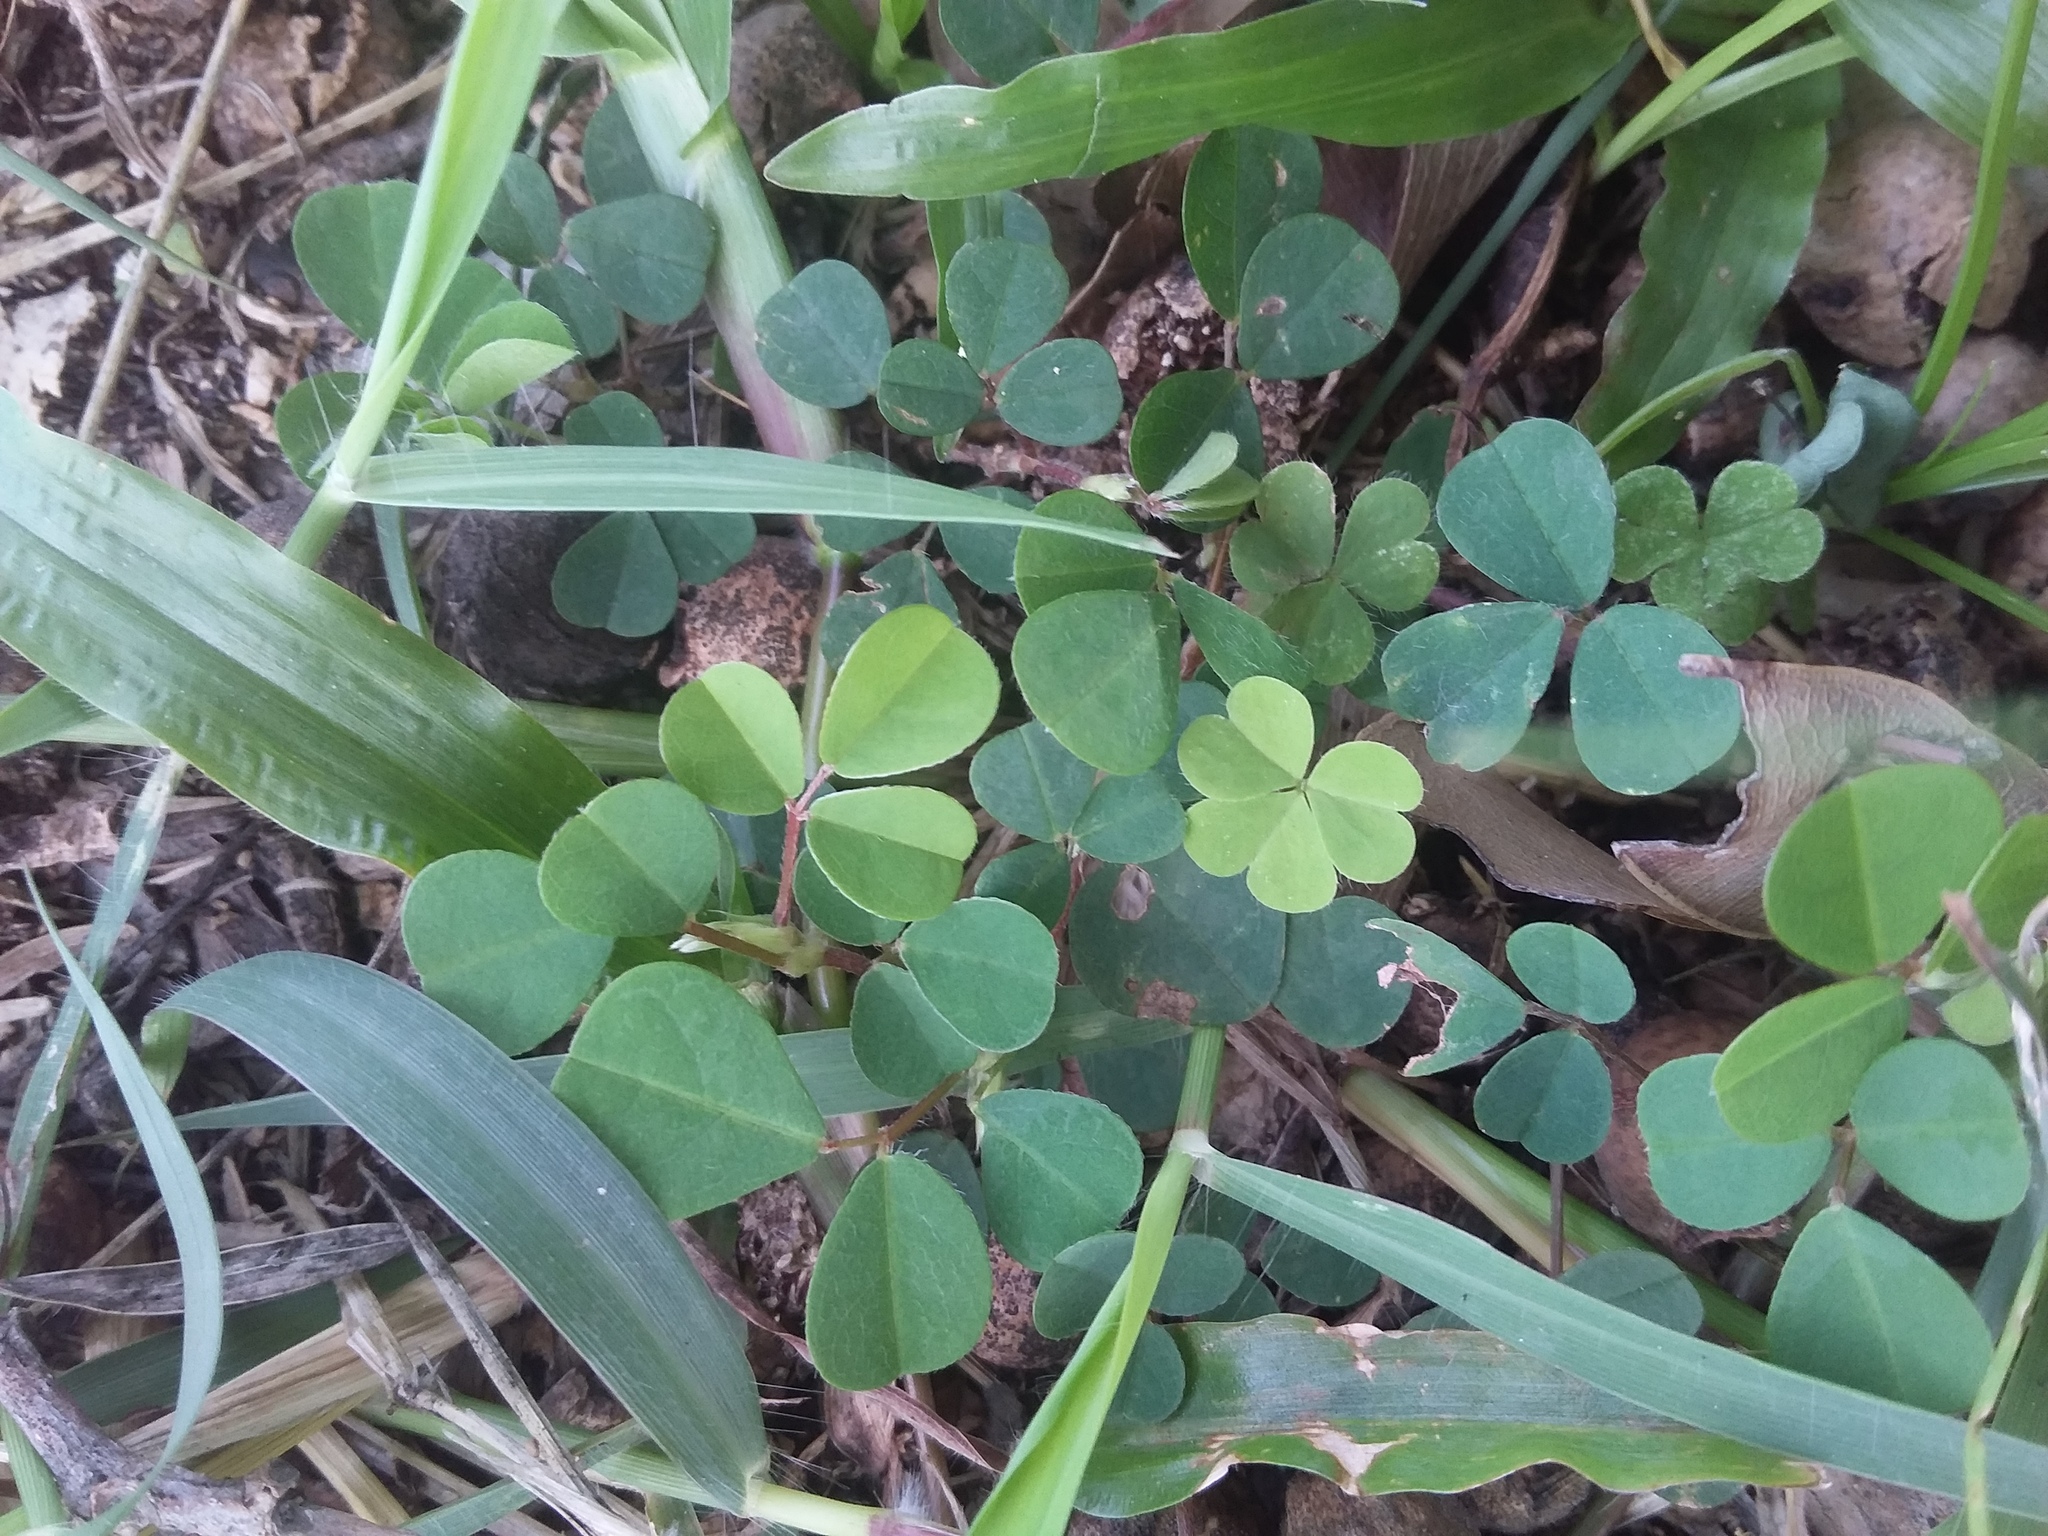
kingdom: Plantae
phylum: Tracheophyta
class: Magnoliopsida
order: Fabales
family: Fabaceae
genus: Grona
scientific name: Grona triflora
